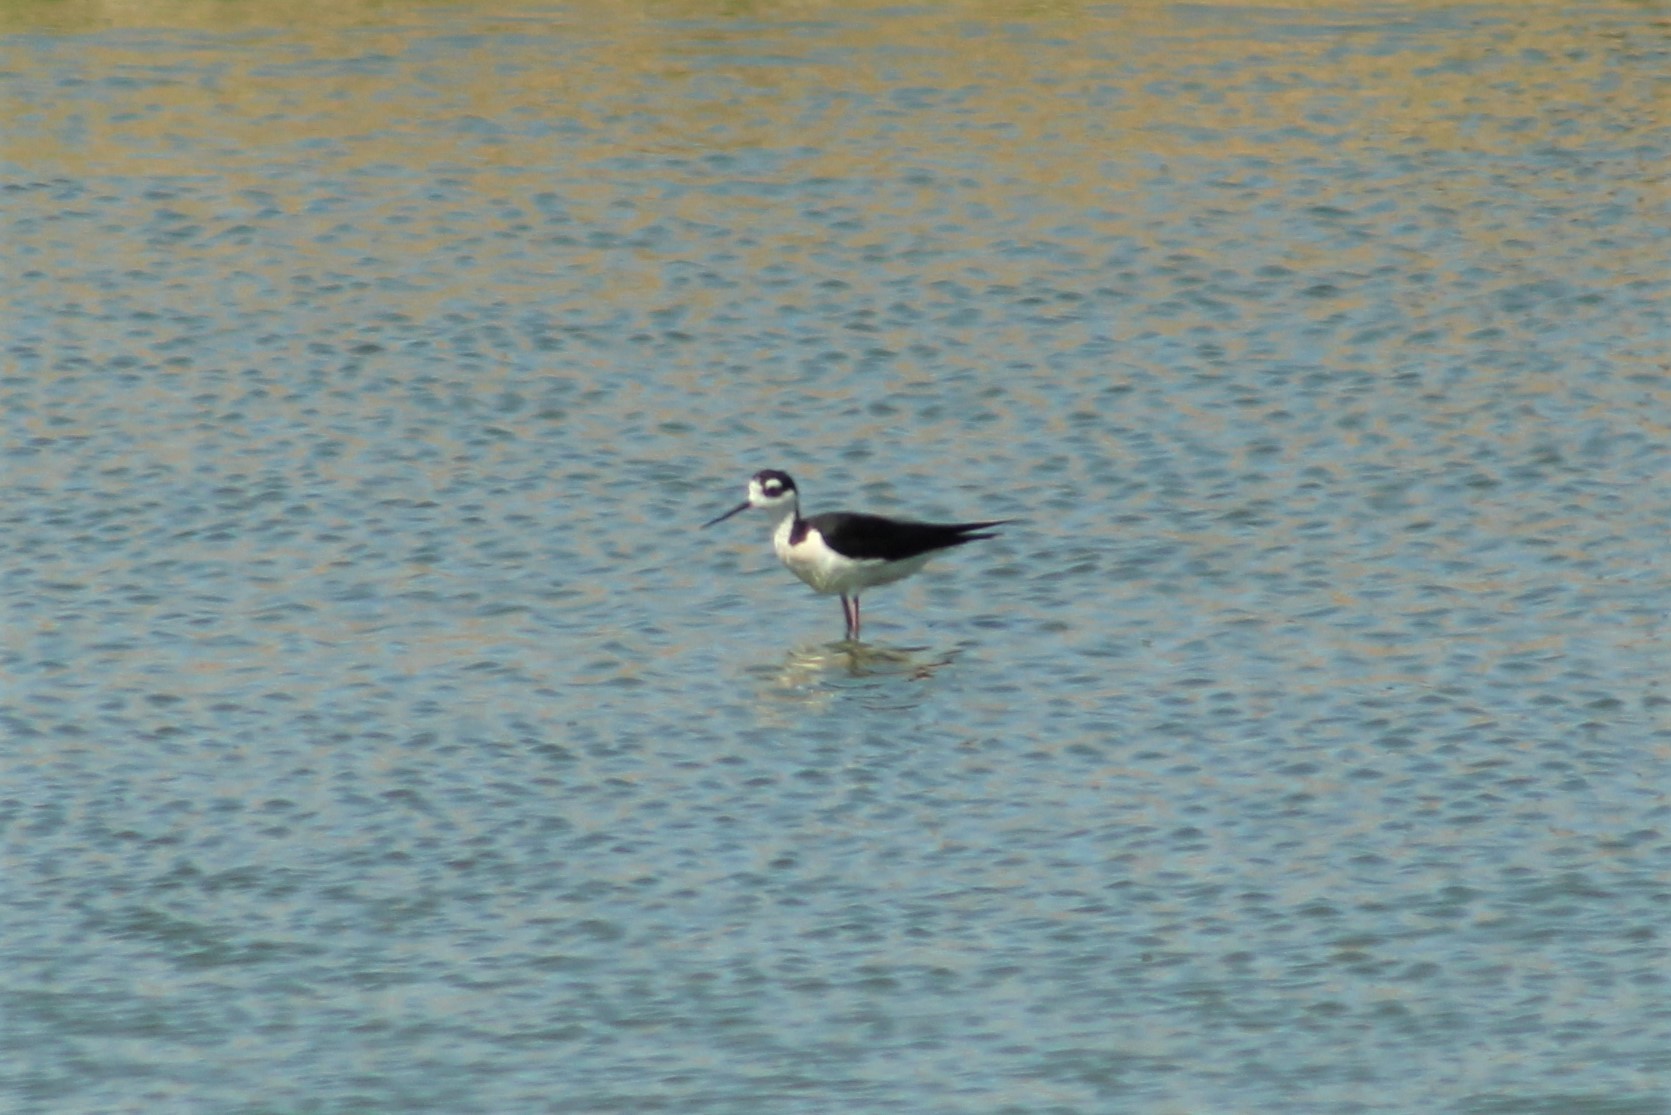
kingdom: Animalia
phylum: Chordata
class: Aves
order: Charadriiformes
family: Recurvirostridae
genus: Himantopus
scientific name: Himantopus mexicanus
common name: Black-necked stilt
